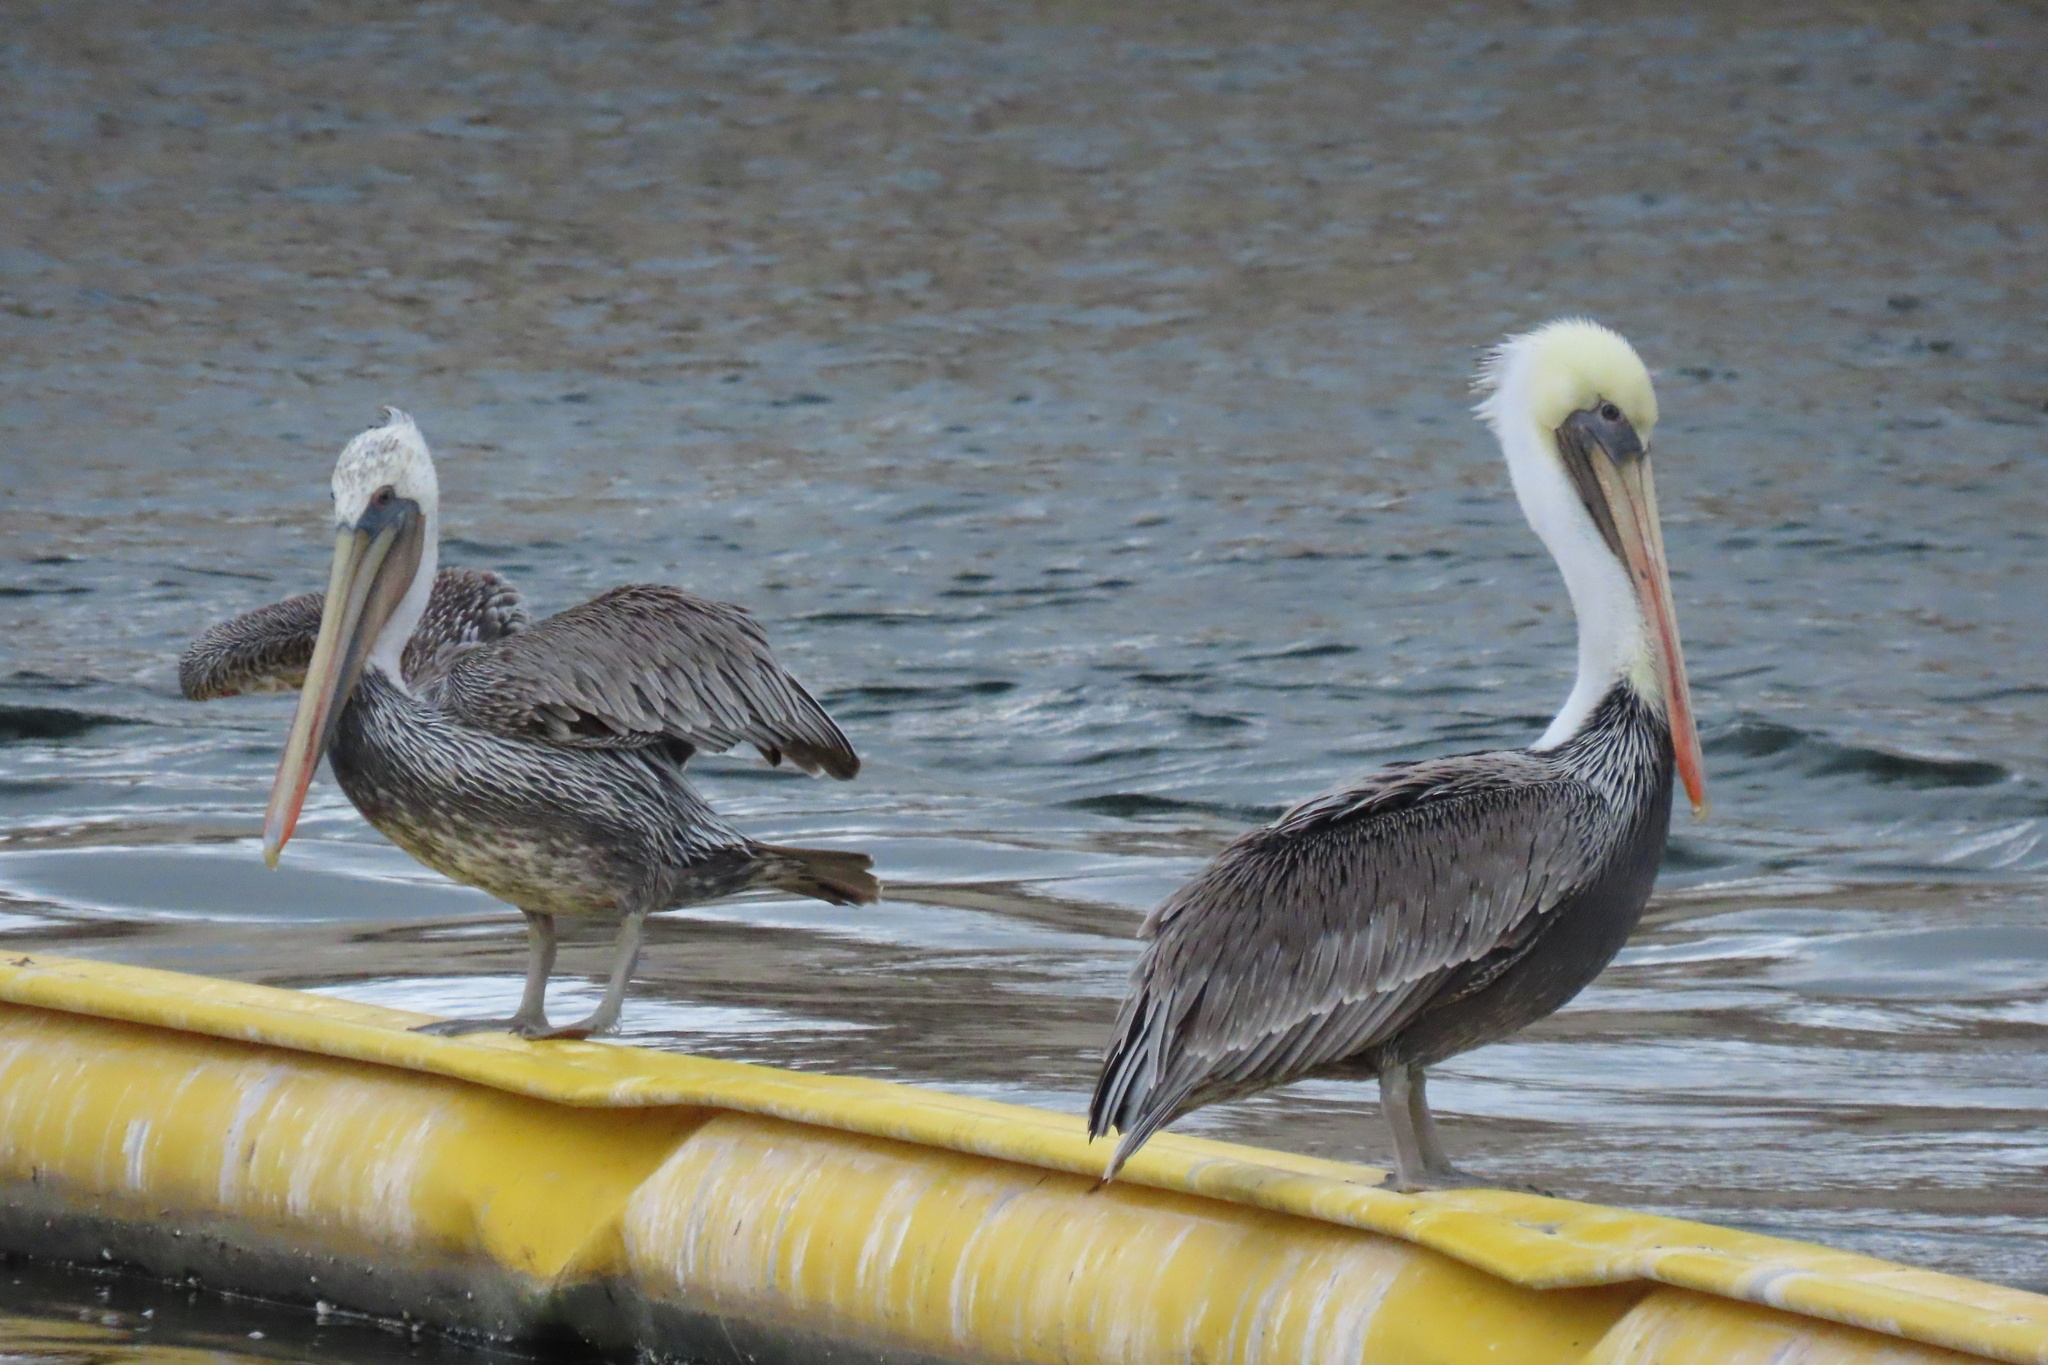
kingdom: Animalia
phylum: Chordata
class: Aves
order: Pelecaniformes
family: Pelecanidae
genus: Pelecanus
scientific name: Pelecanus occidentalis
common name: Brown pelican
